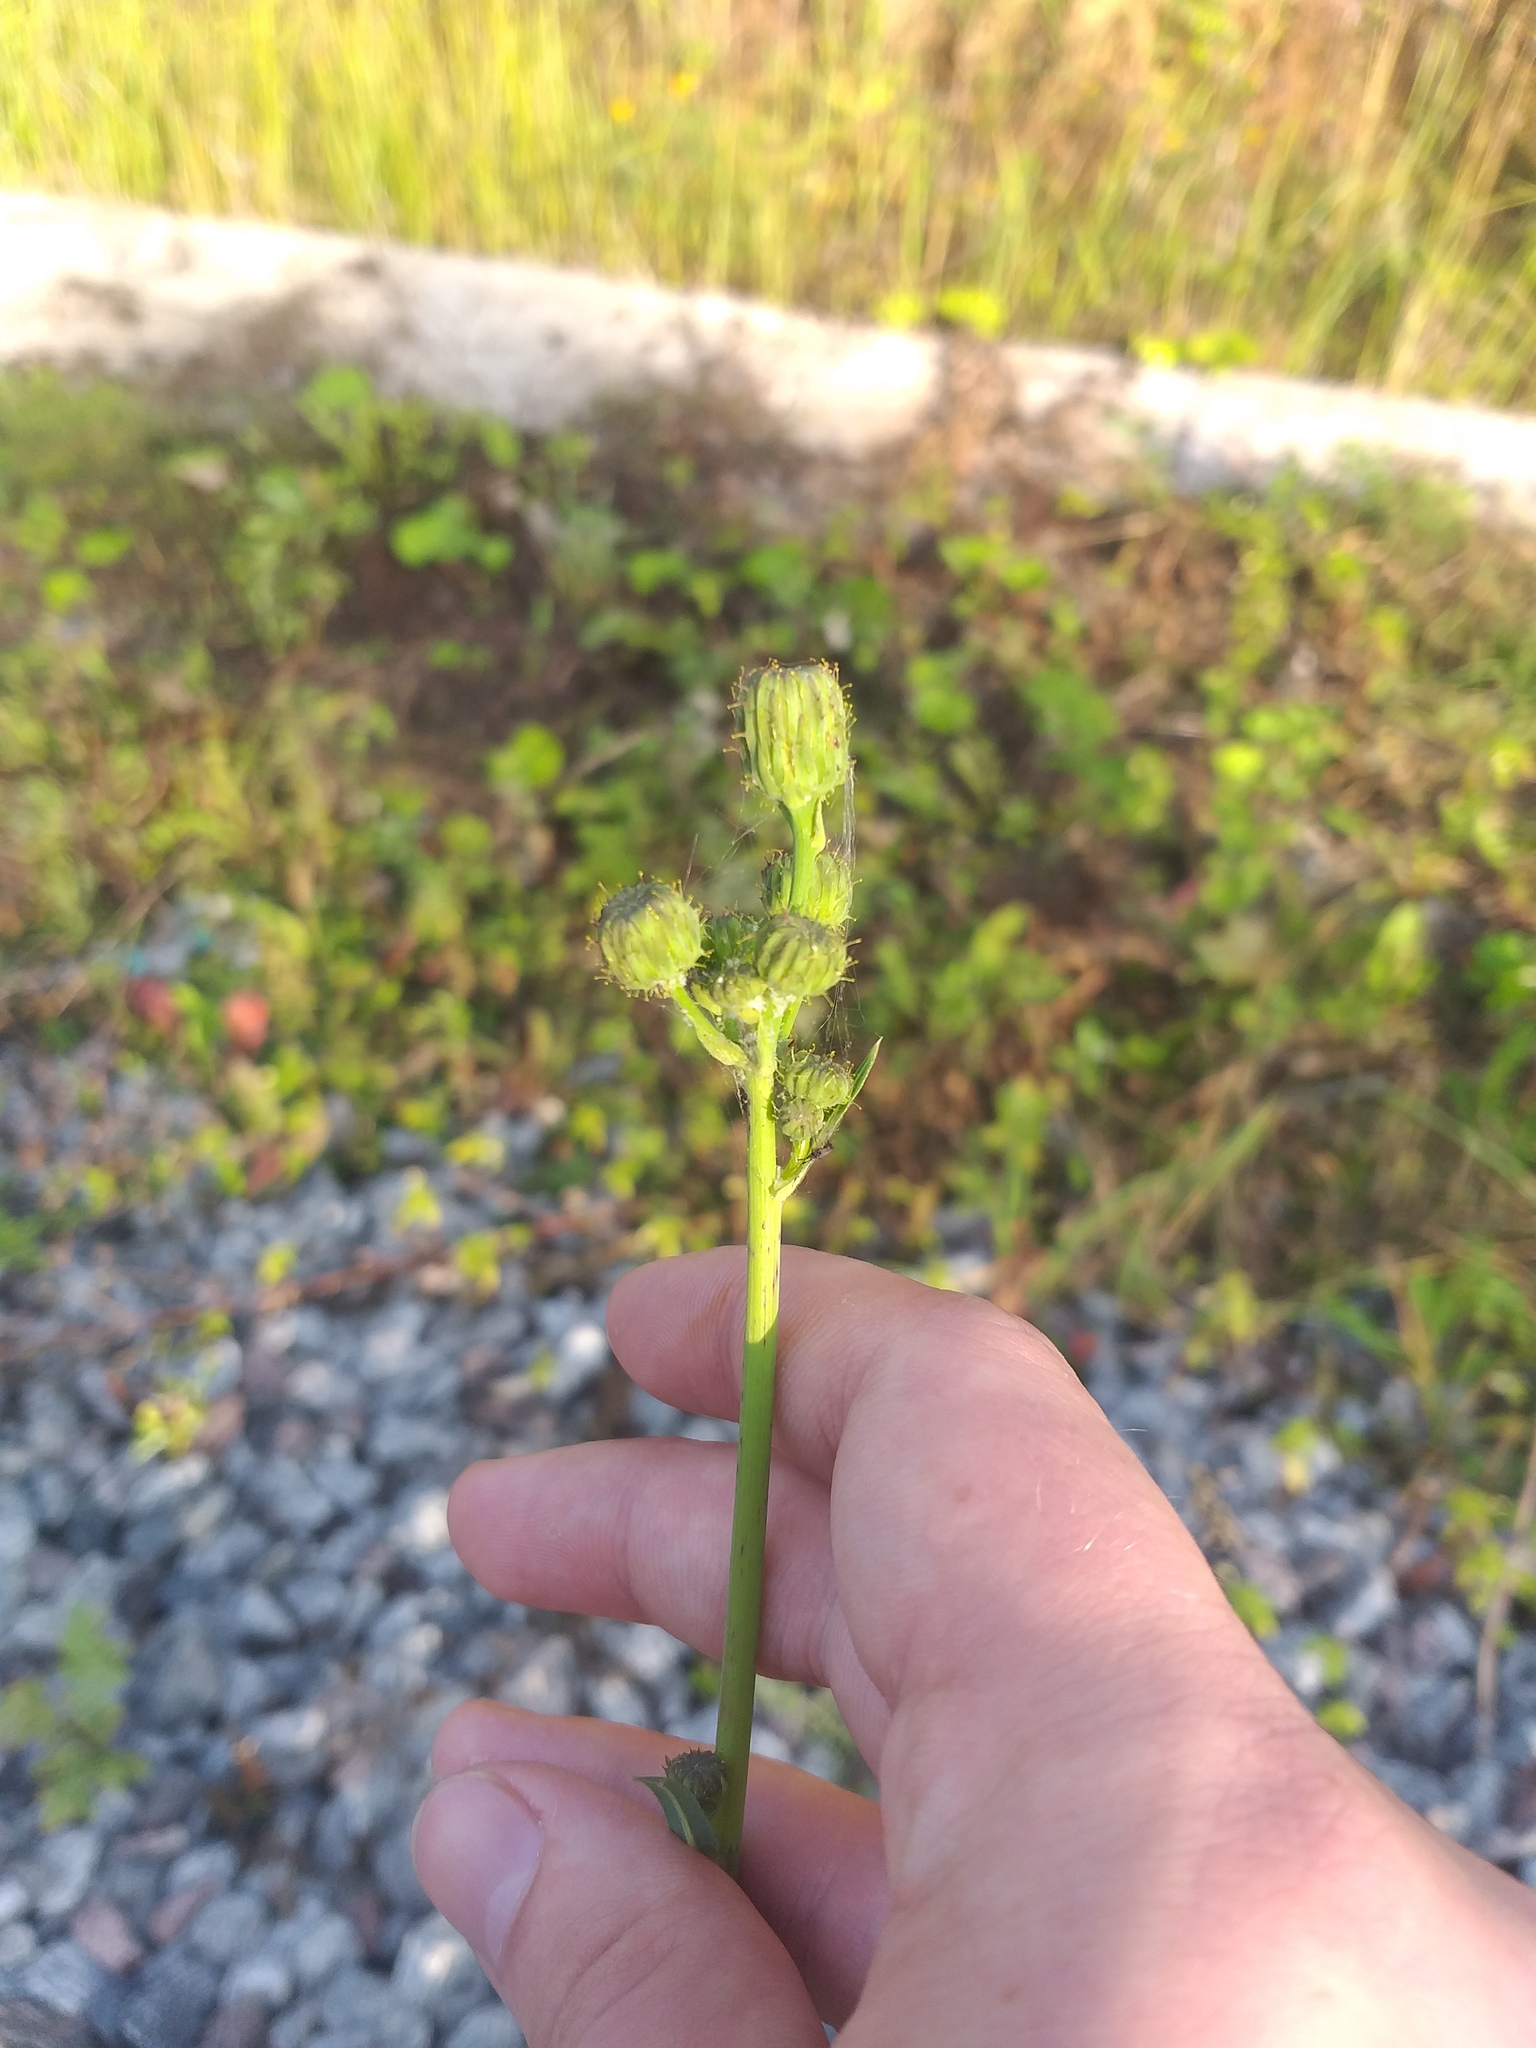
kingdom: Plantae
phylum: Tracheophyta
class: Magnoliopsida
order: Asterales
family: Asteraceae
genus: Sonchus
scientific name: Sonchus arvensis
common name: Perennial sow-thistle
